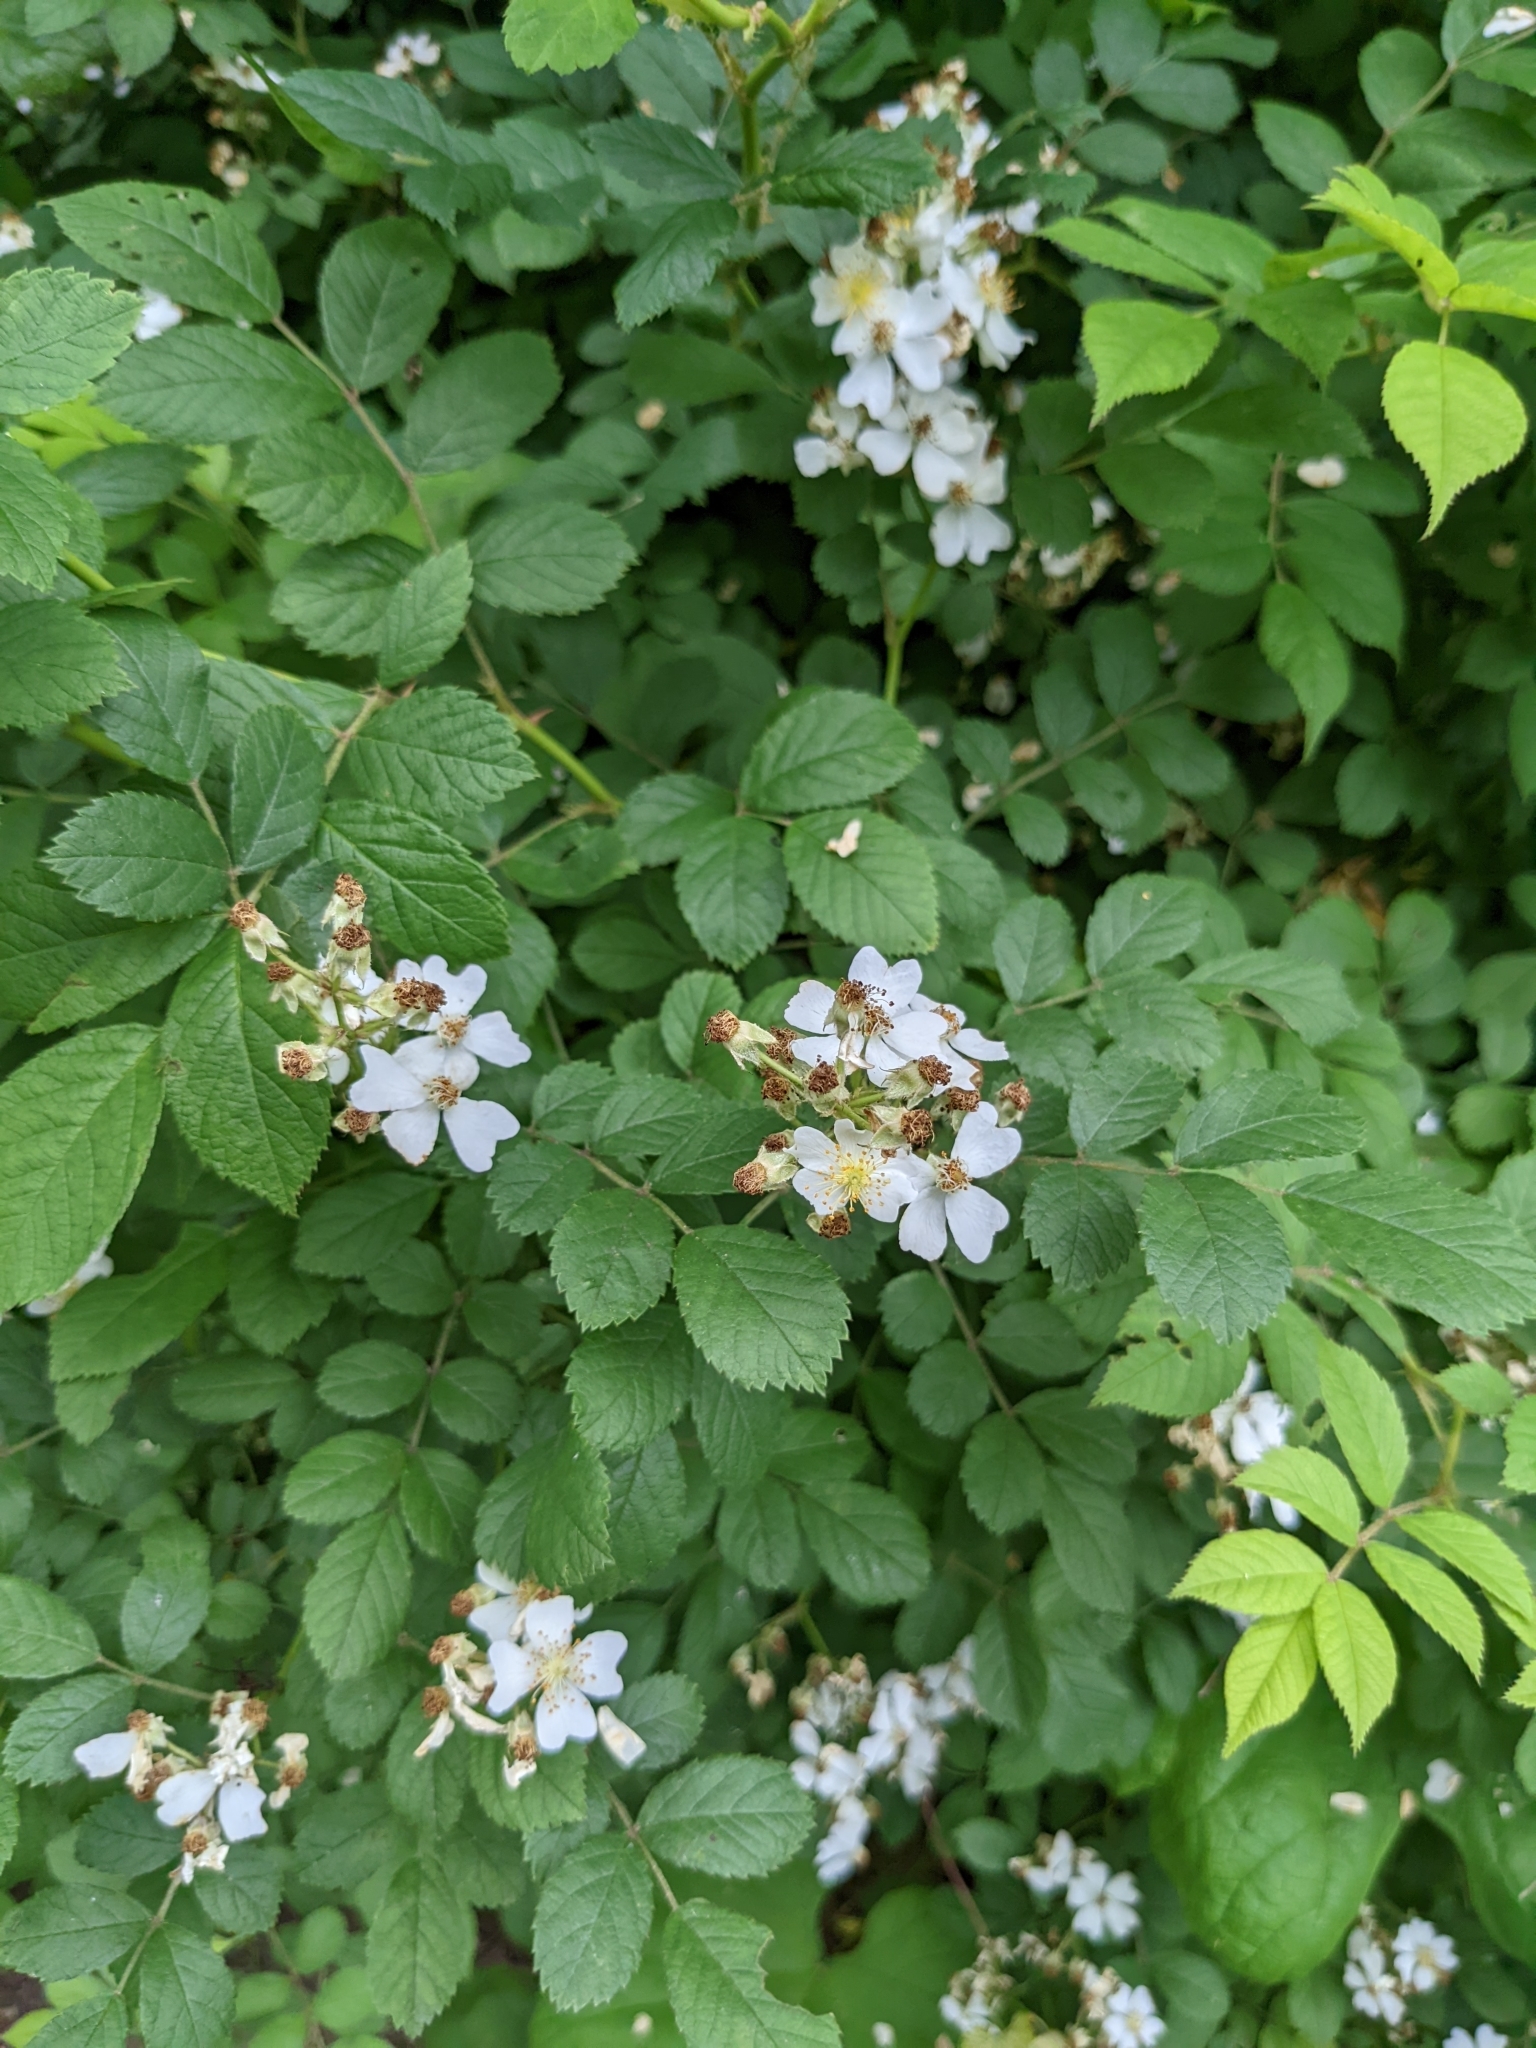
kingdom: Plantae
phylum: Tracheophyta
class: Magnoliopsida
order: Rosales
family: Rosaceae
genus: Rosa
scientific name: Rosa multiflora
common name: Multiflora rose
